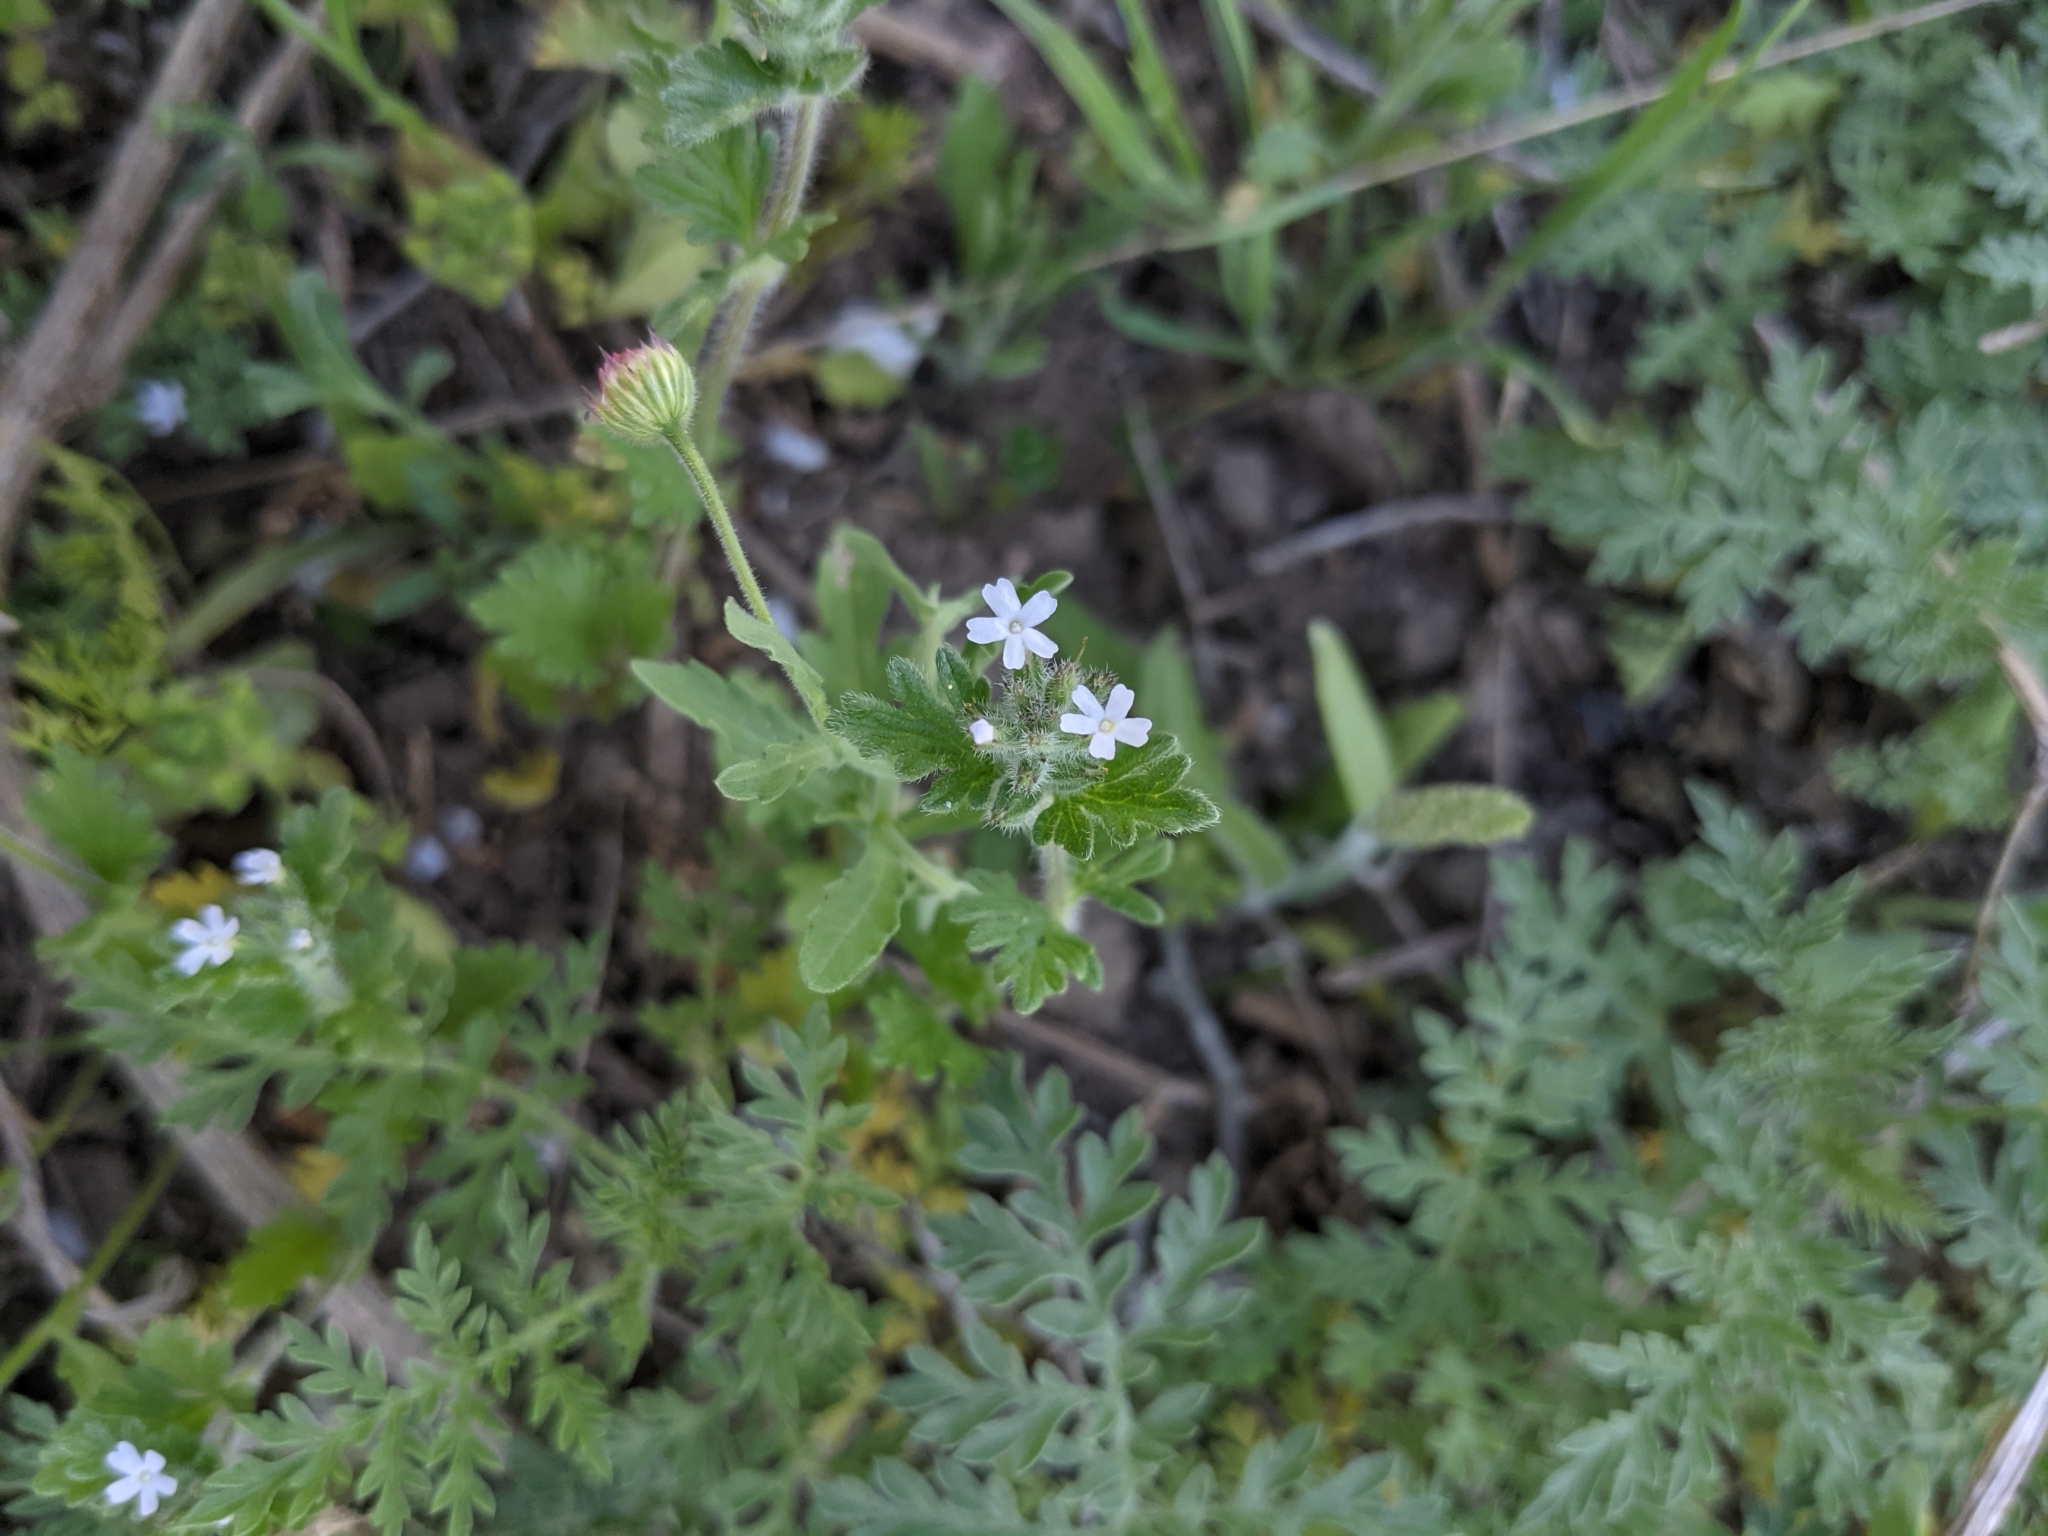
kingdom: Plantae
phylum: Tracheophyta
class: Magnoliopsida
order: Lamiales
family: Verbenaceae
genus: Verbena
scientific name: Verbena quadrangulata
